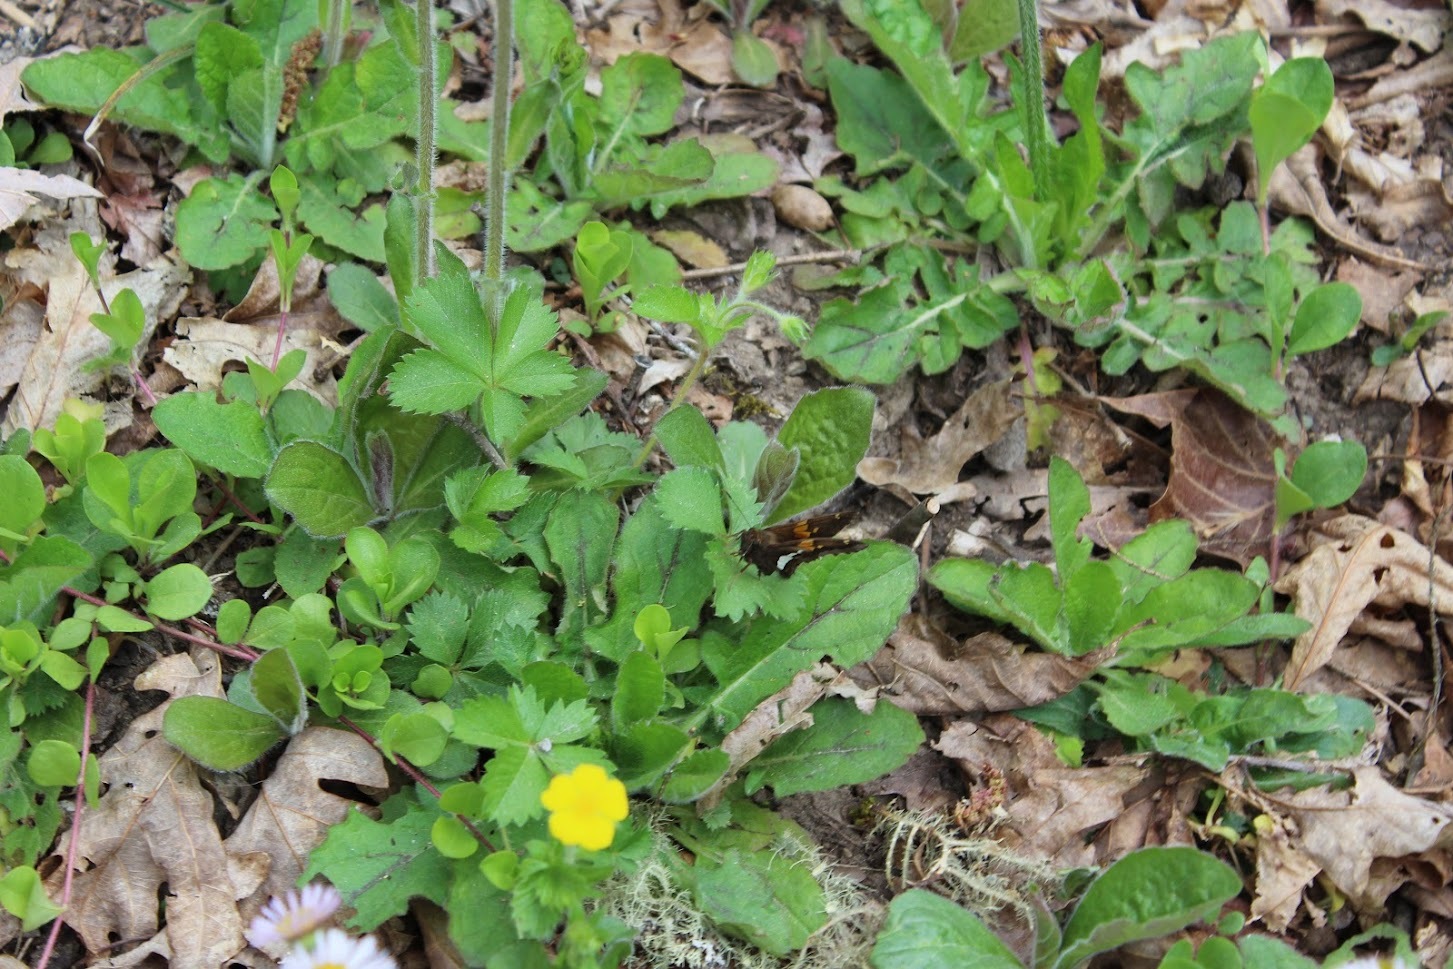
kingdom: Plantae
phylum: Tracheophyta
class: Magnoliopsida
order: Rosales
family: Rosaceae
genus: Potentilla
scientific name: Potentilla canadensis
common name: Canada cinquefoil
